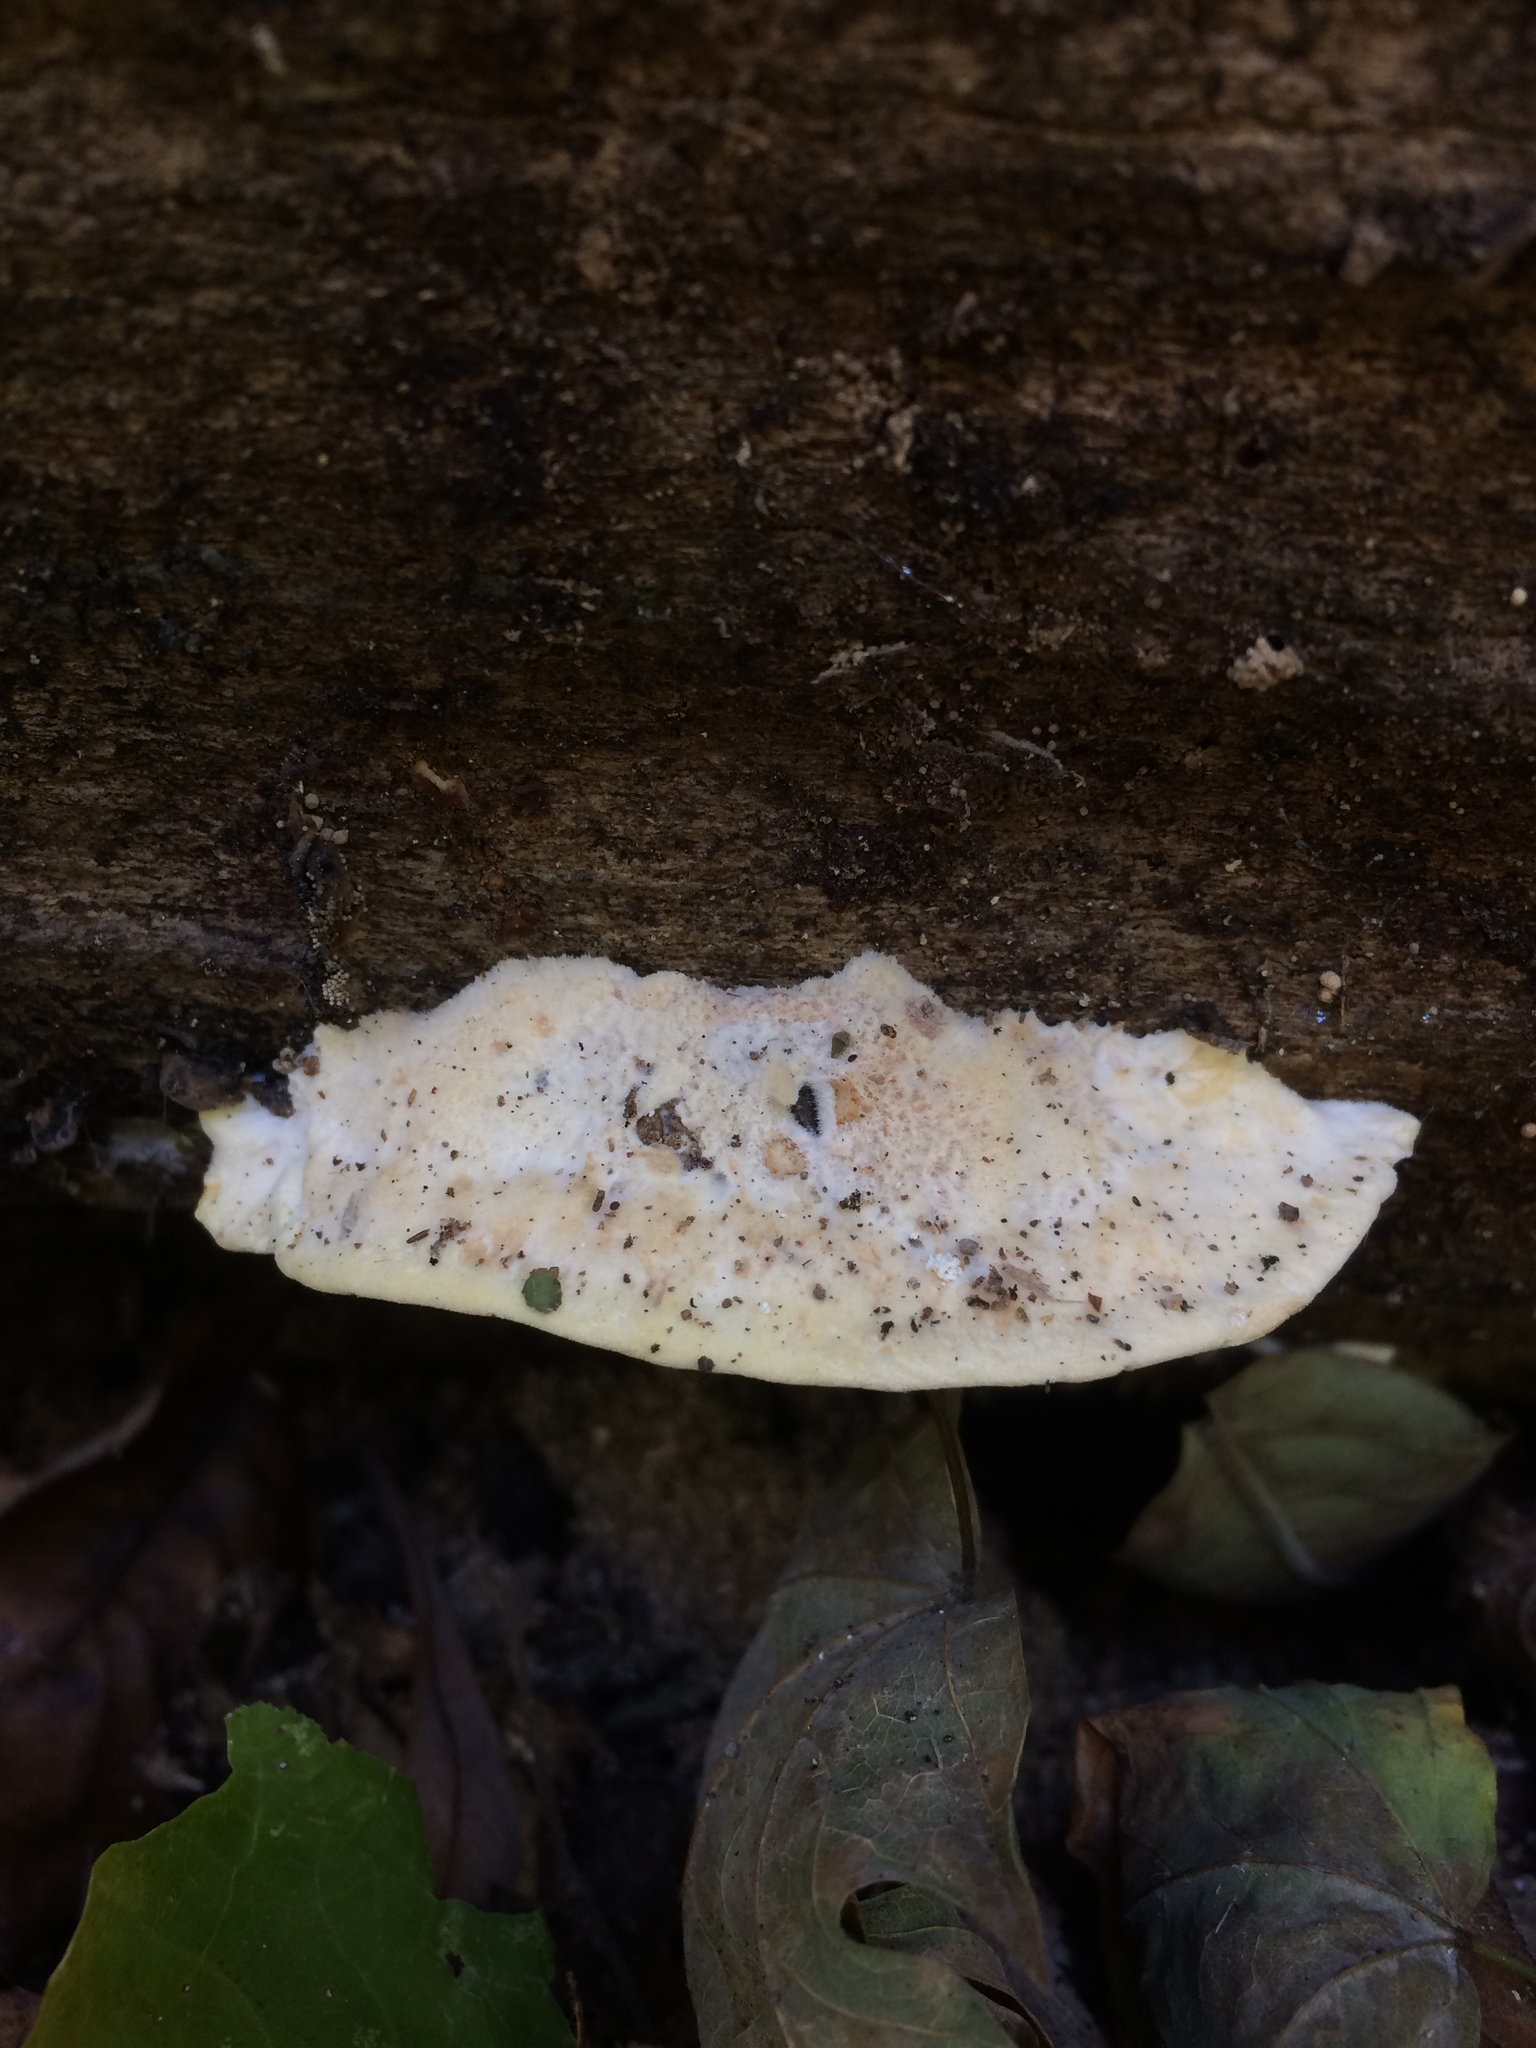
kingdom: Fungi
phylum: Basidiomycota
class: Agaricomycetes
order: Polyporales
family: Dacryobolaceae
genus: Postia
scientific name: Postia balsamea
